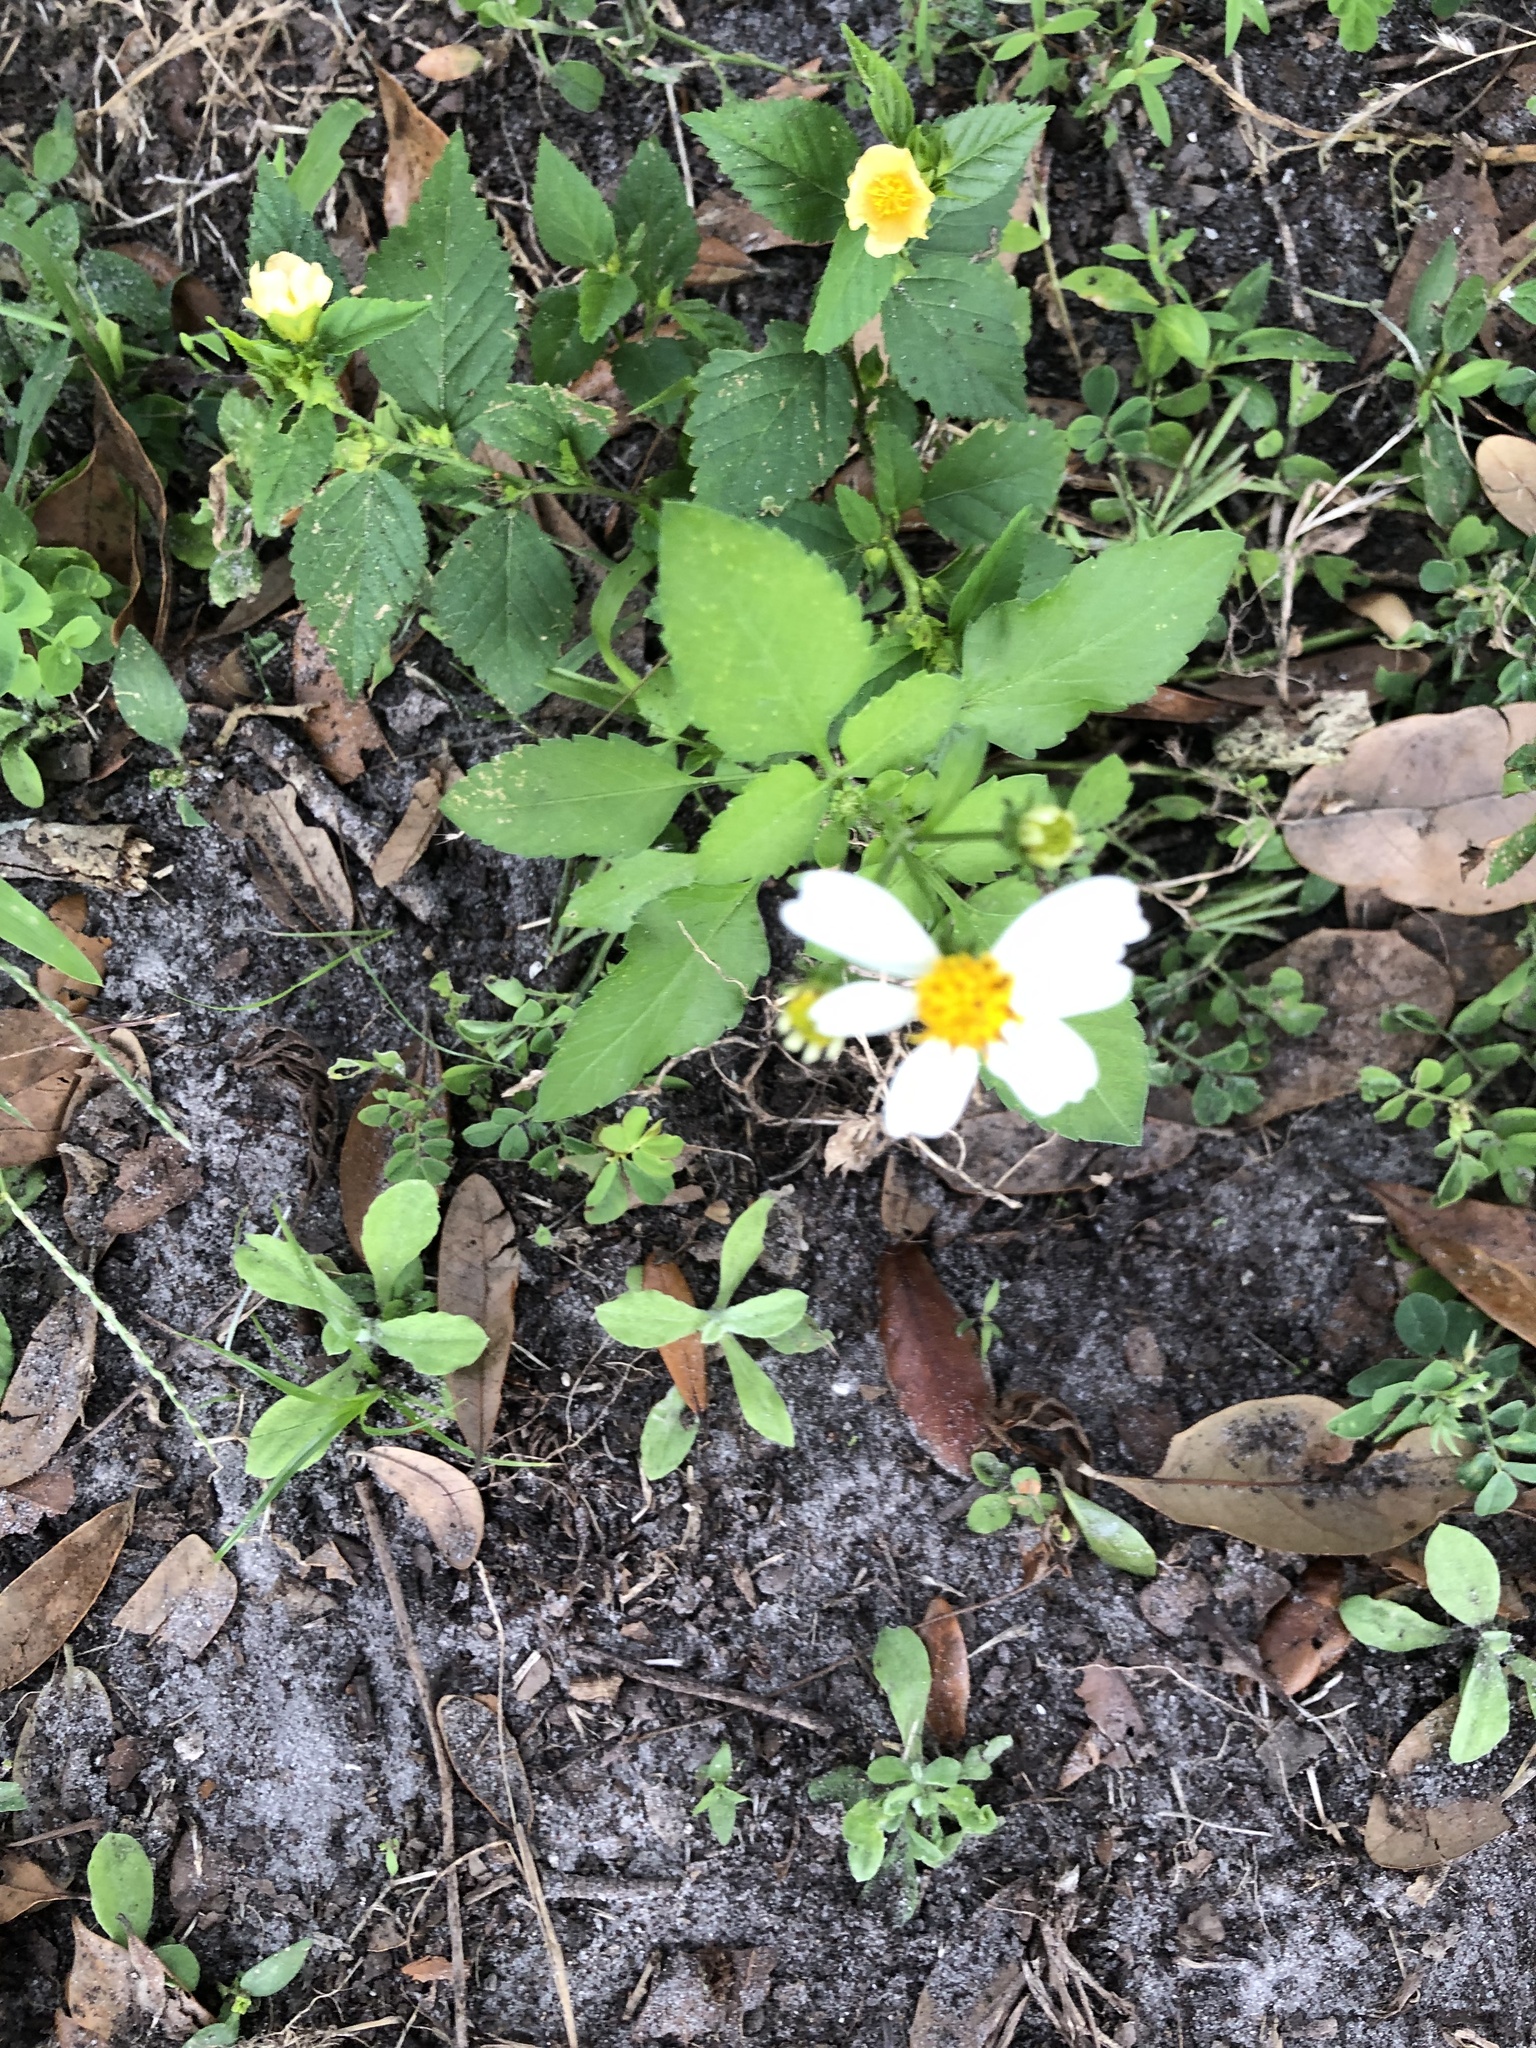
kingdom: Plantae
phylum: Tracheophyta
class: Magnoliopsida
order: Asterales
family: Asteraceae
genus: Bidens
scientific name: Bidens alba
